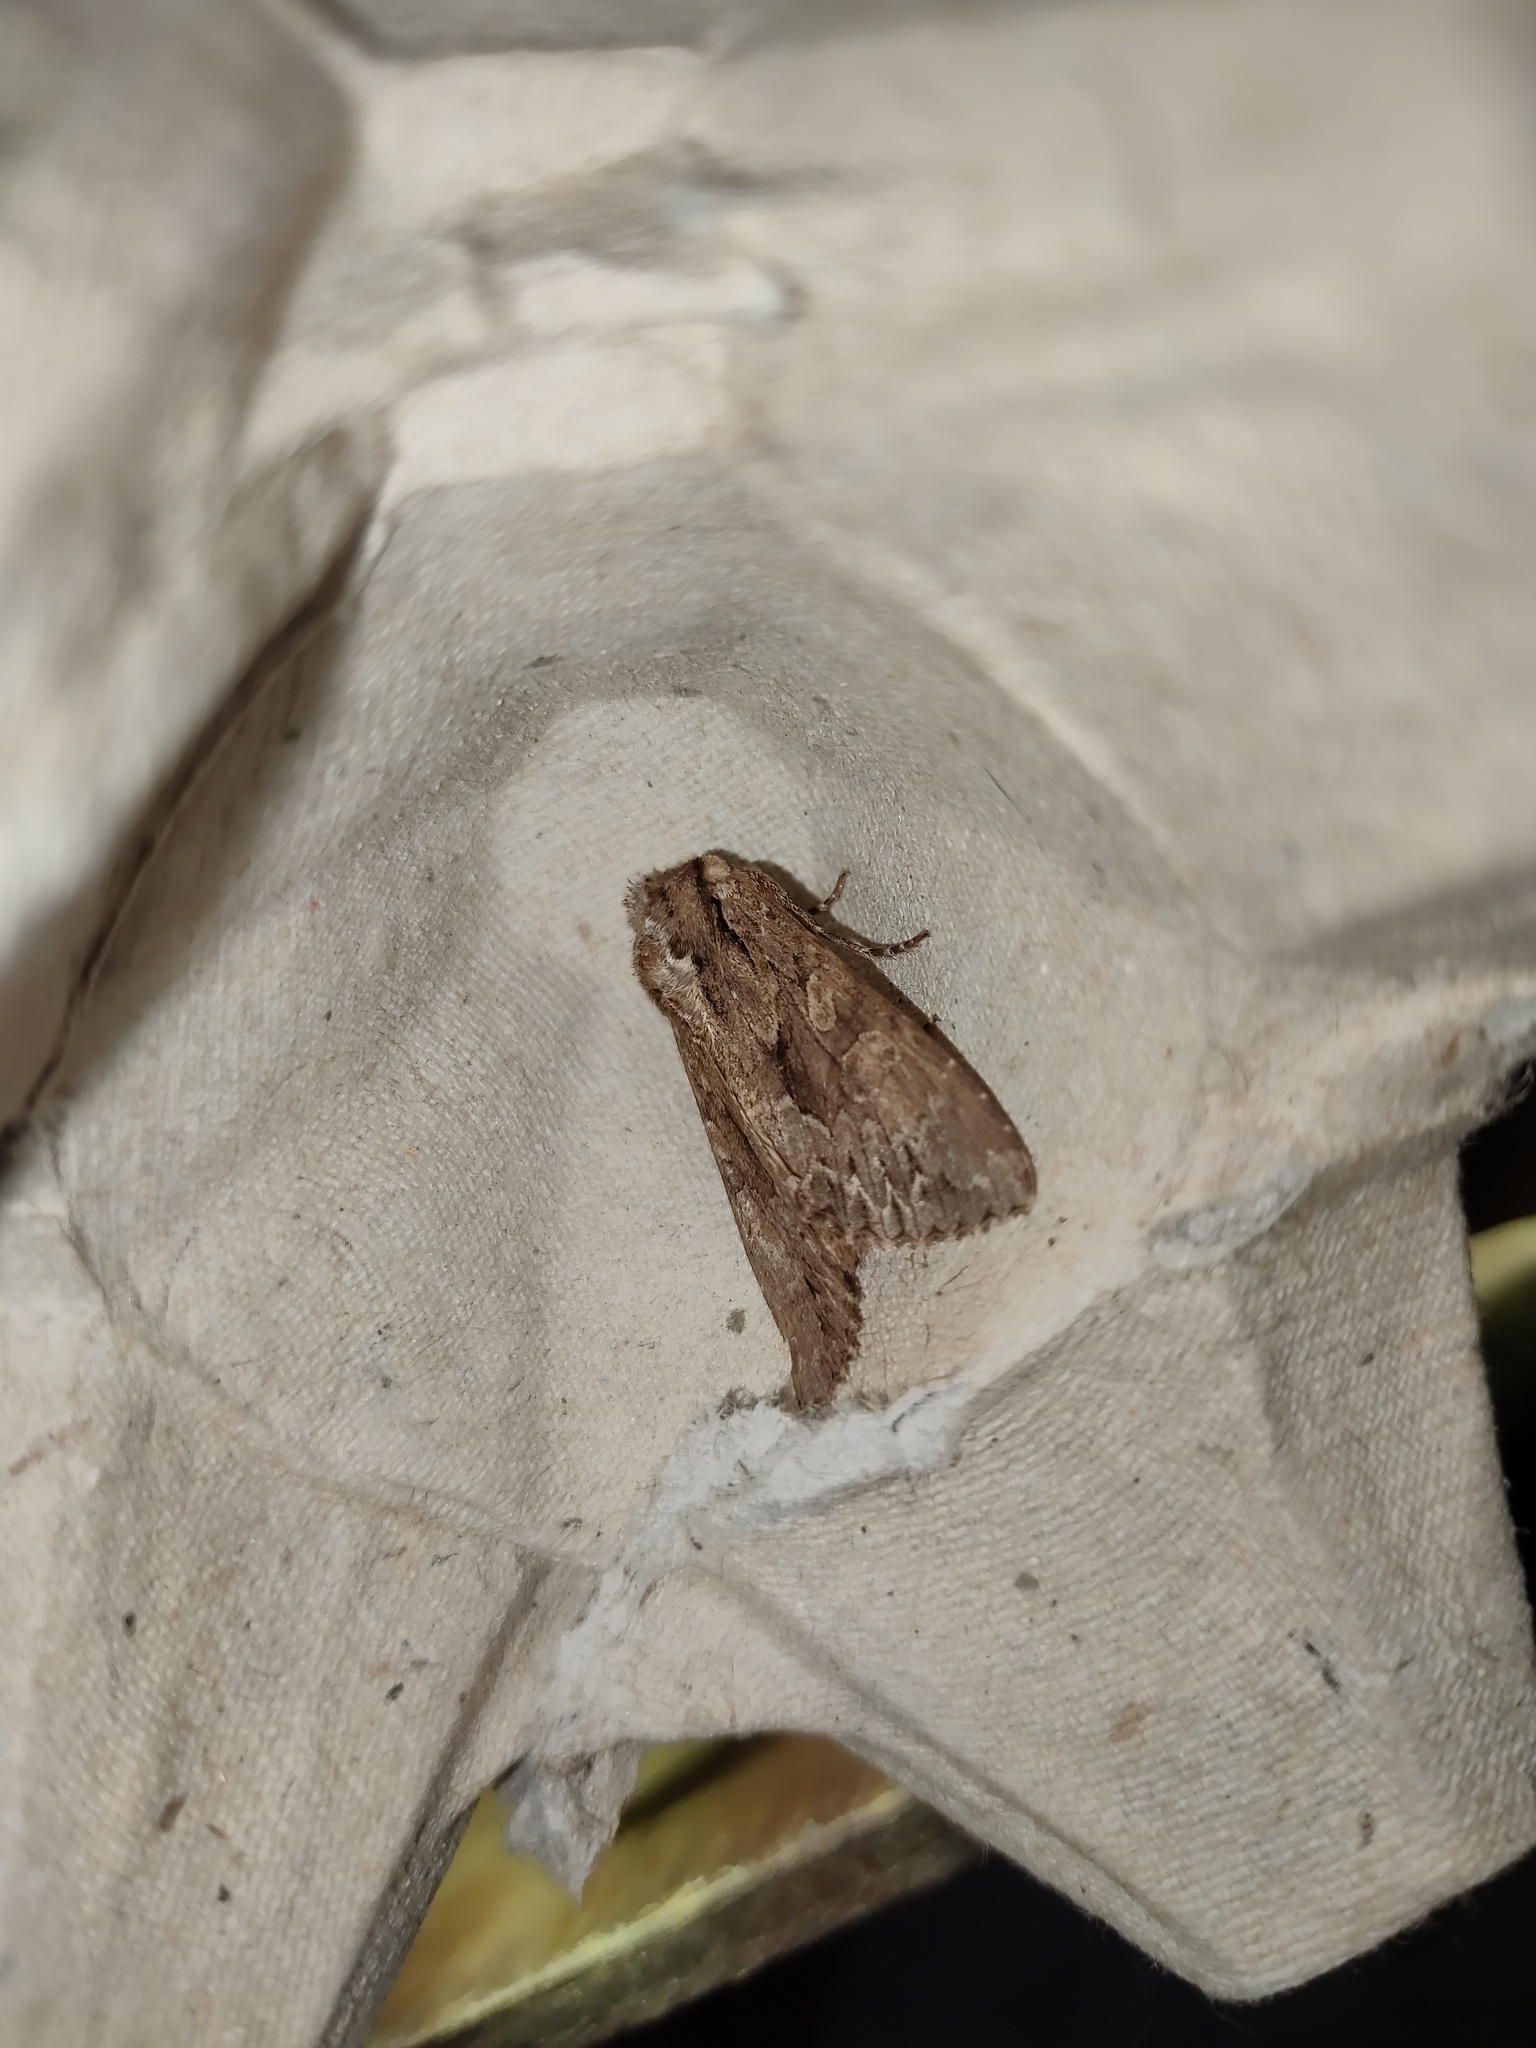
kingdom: Animalia
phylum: Arthropoda
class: Insecta
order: Lepidoptera
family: Noctuidae
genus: Apamea
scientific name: Apamea monoglypha
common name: Dark arches
